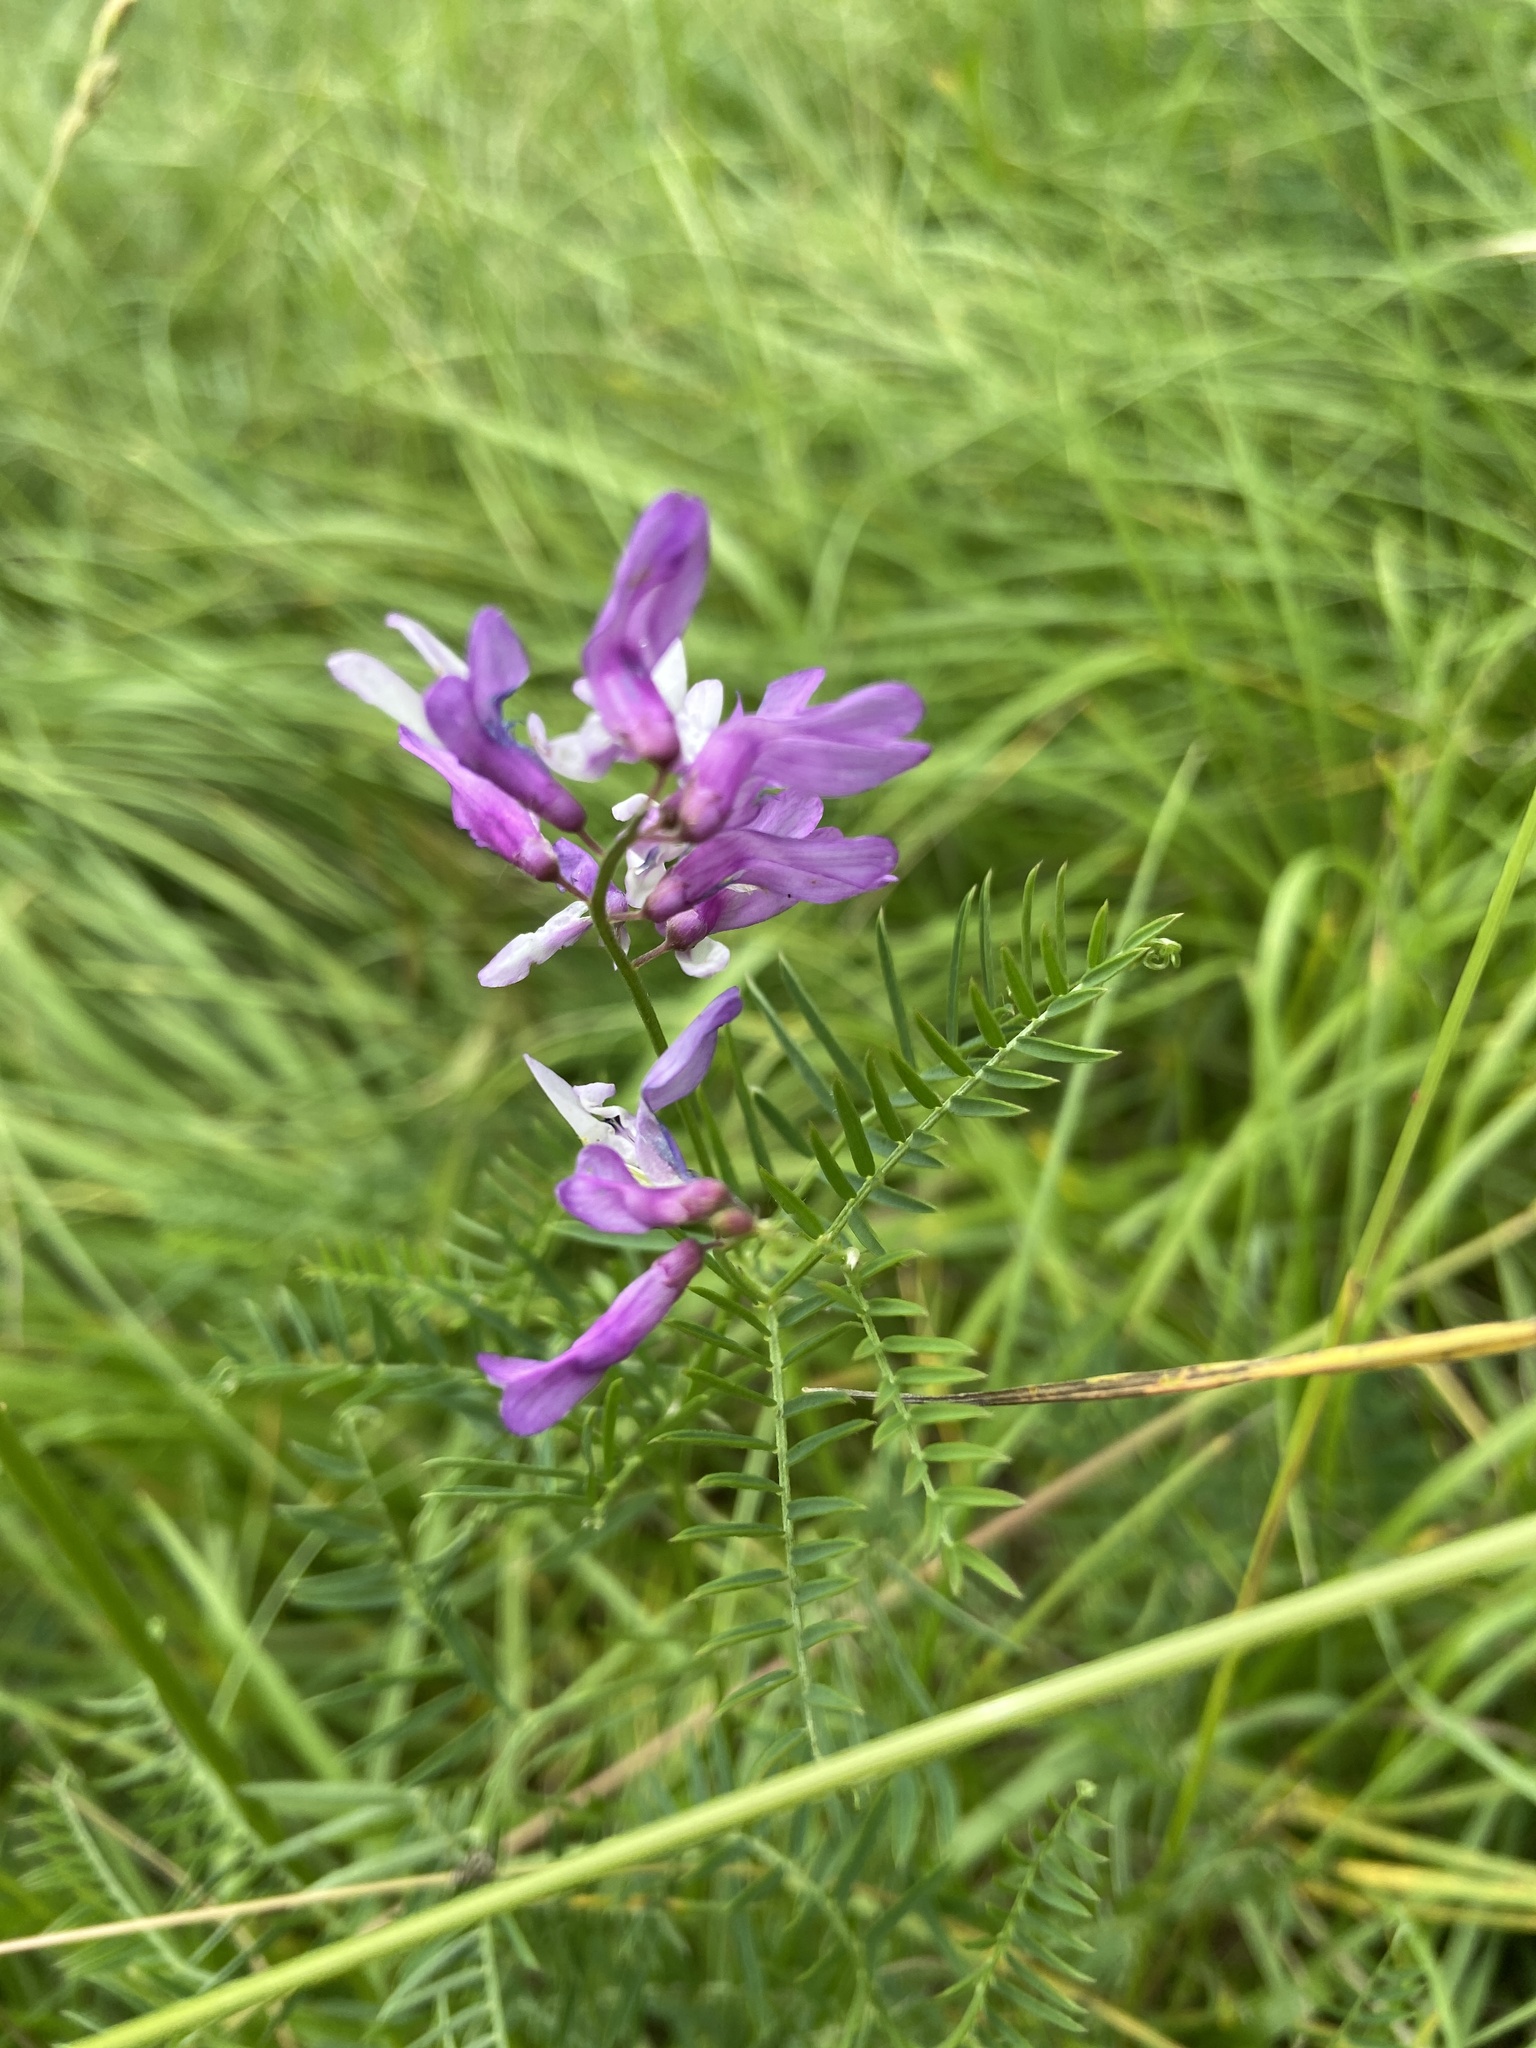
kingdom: Plantae
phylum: Tracheophyta
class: Magnoliopsida
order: Fabales
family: Fabaceae
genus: Vicia
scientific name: Vicia cracca
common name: Bird vetch
